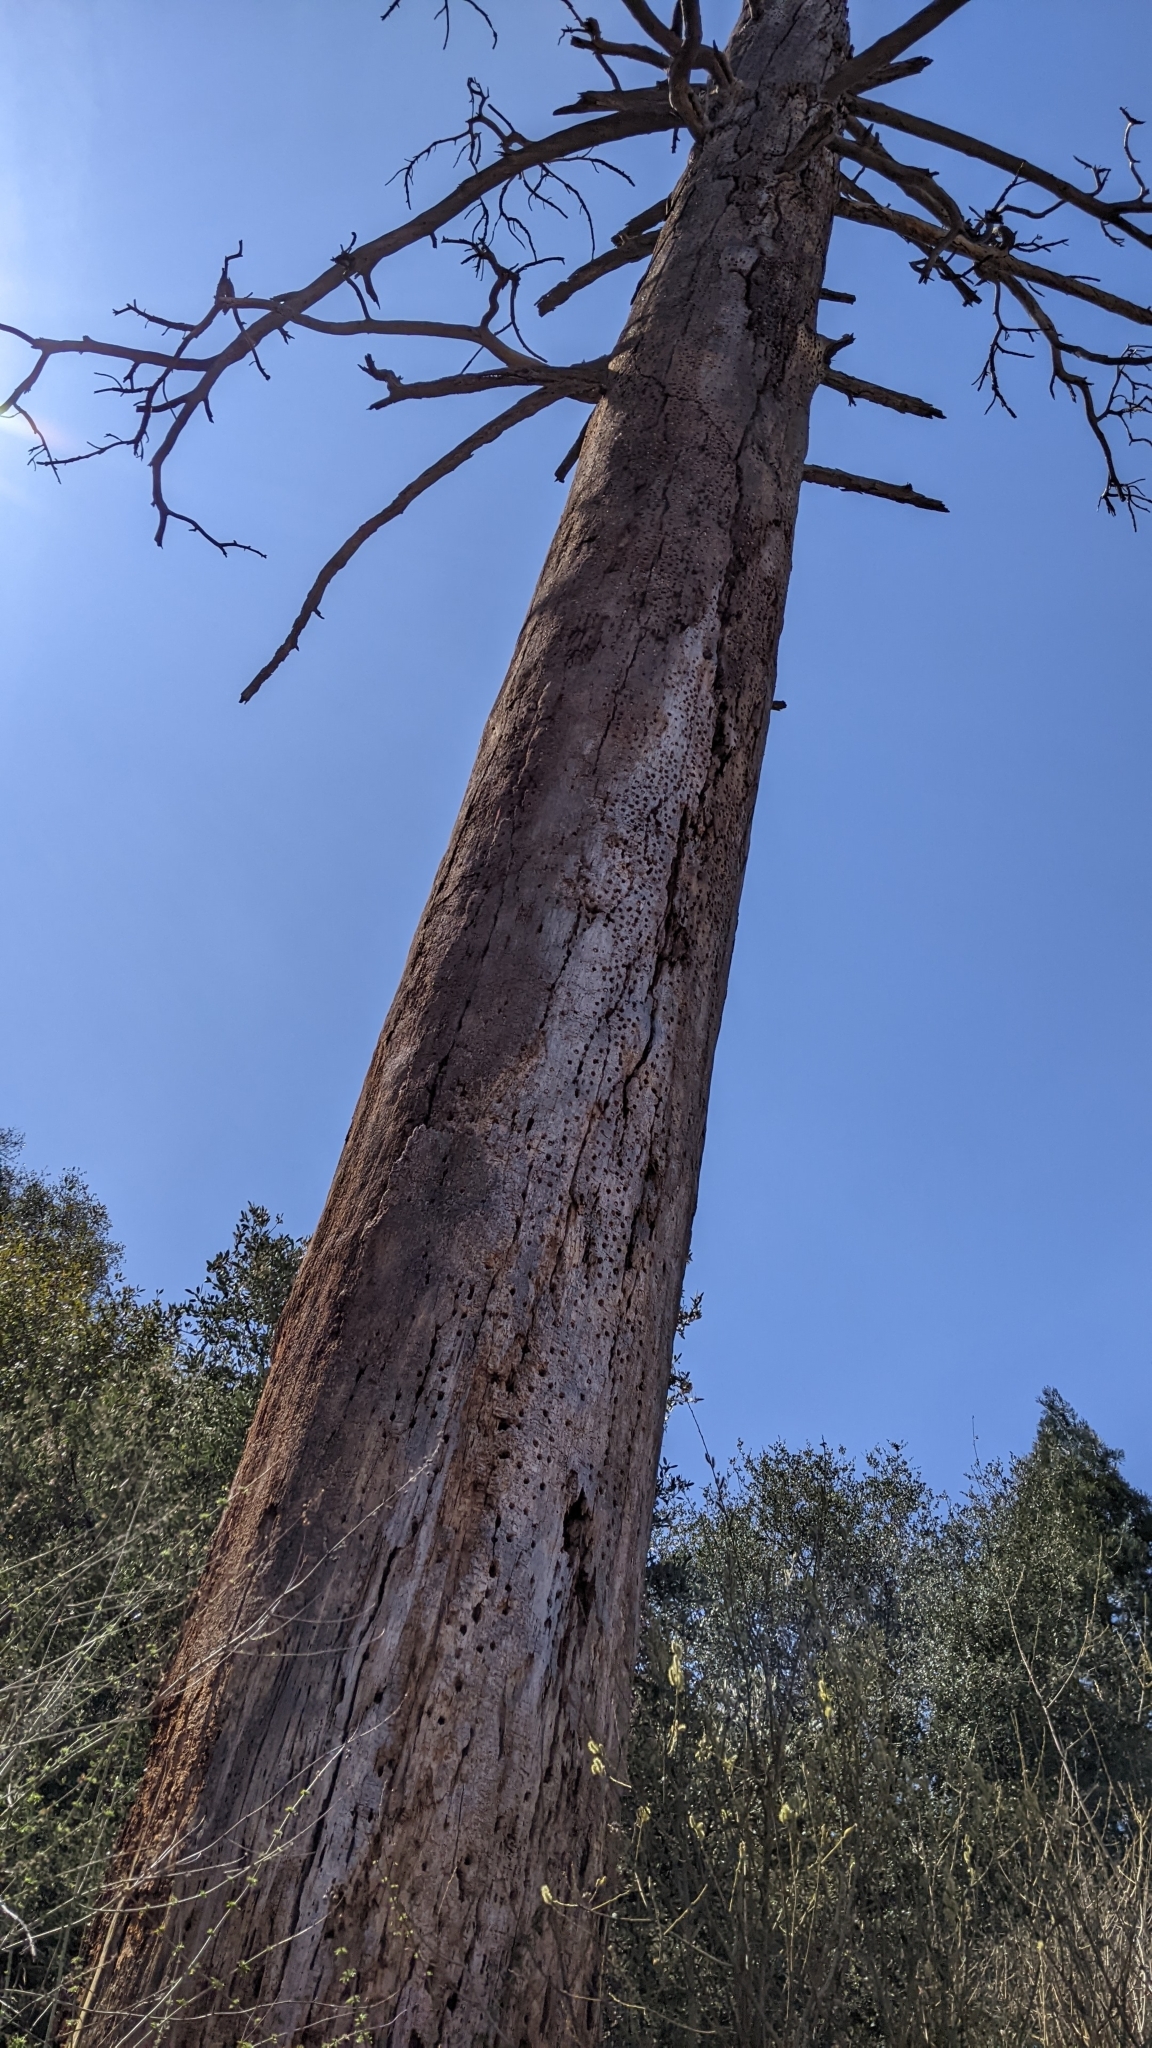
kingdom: Animalia
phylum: Chordata
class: Aves
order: Piciformes
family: Picidae
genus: Melanerpes
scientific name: Melanerpes formicivorus
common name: Acorn woodpecker
